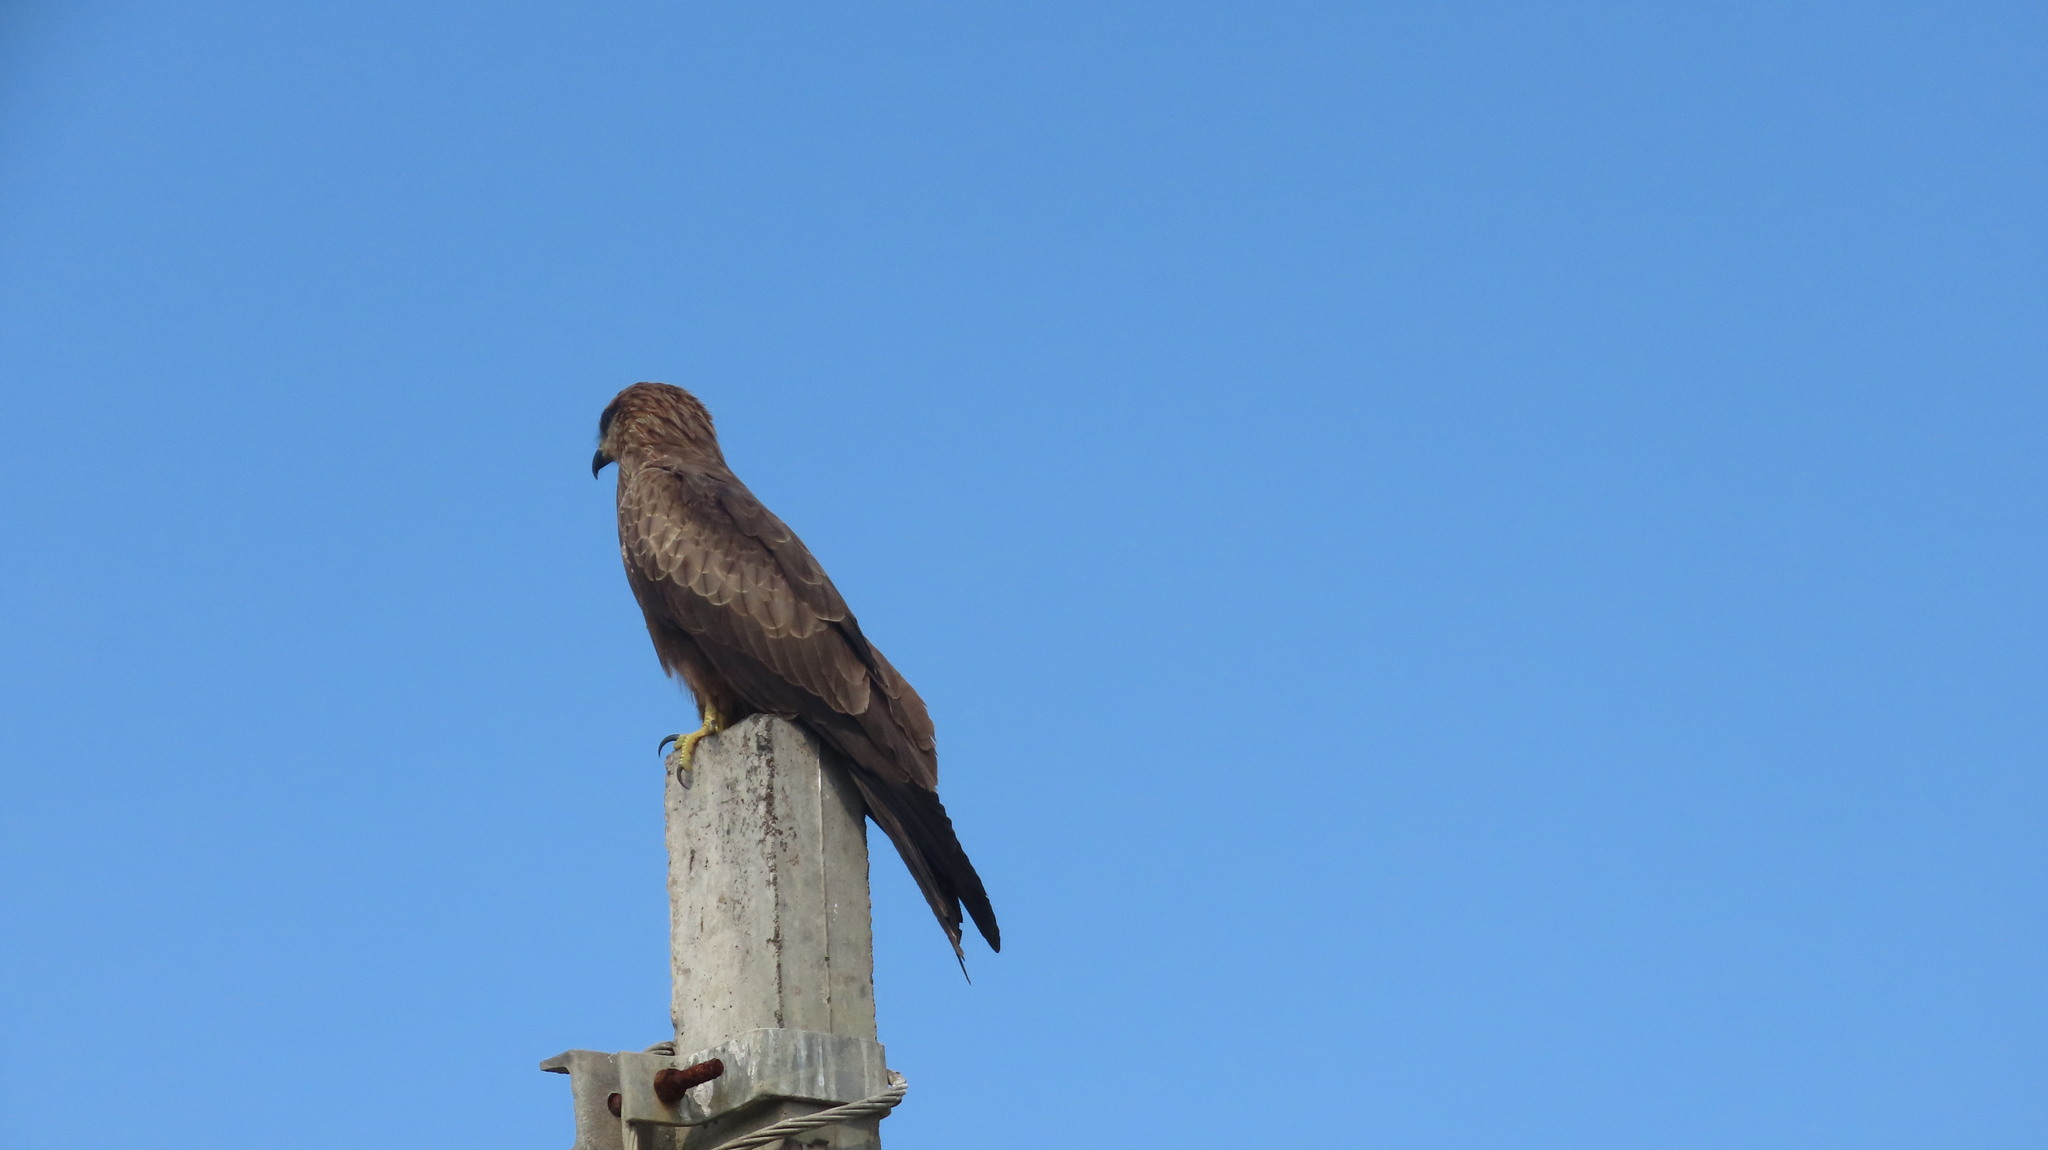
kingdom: Animalia
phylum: Chordata
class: Aves
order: Accipitriformes
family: Accipitridae
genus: Milvus
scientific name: Milvus migrans
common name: Black kite
